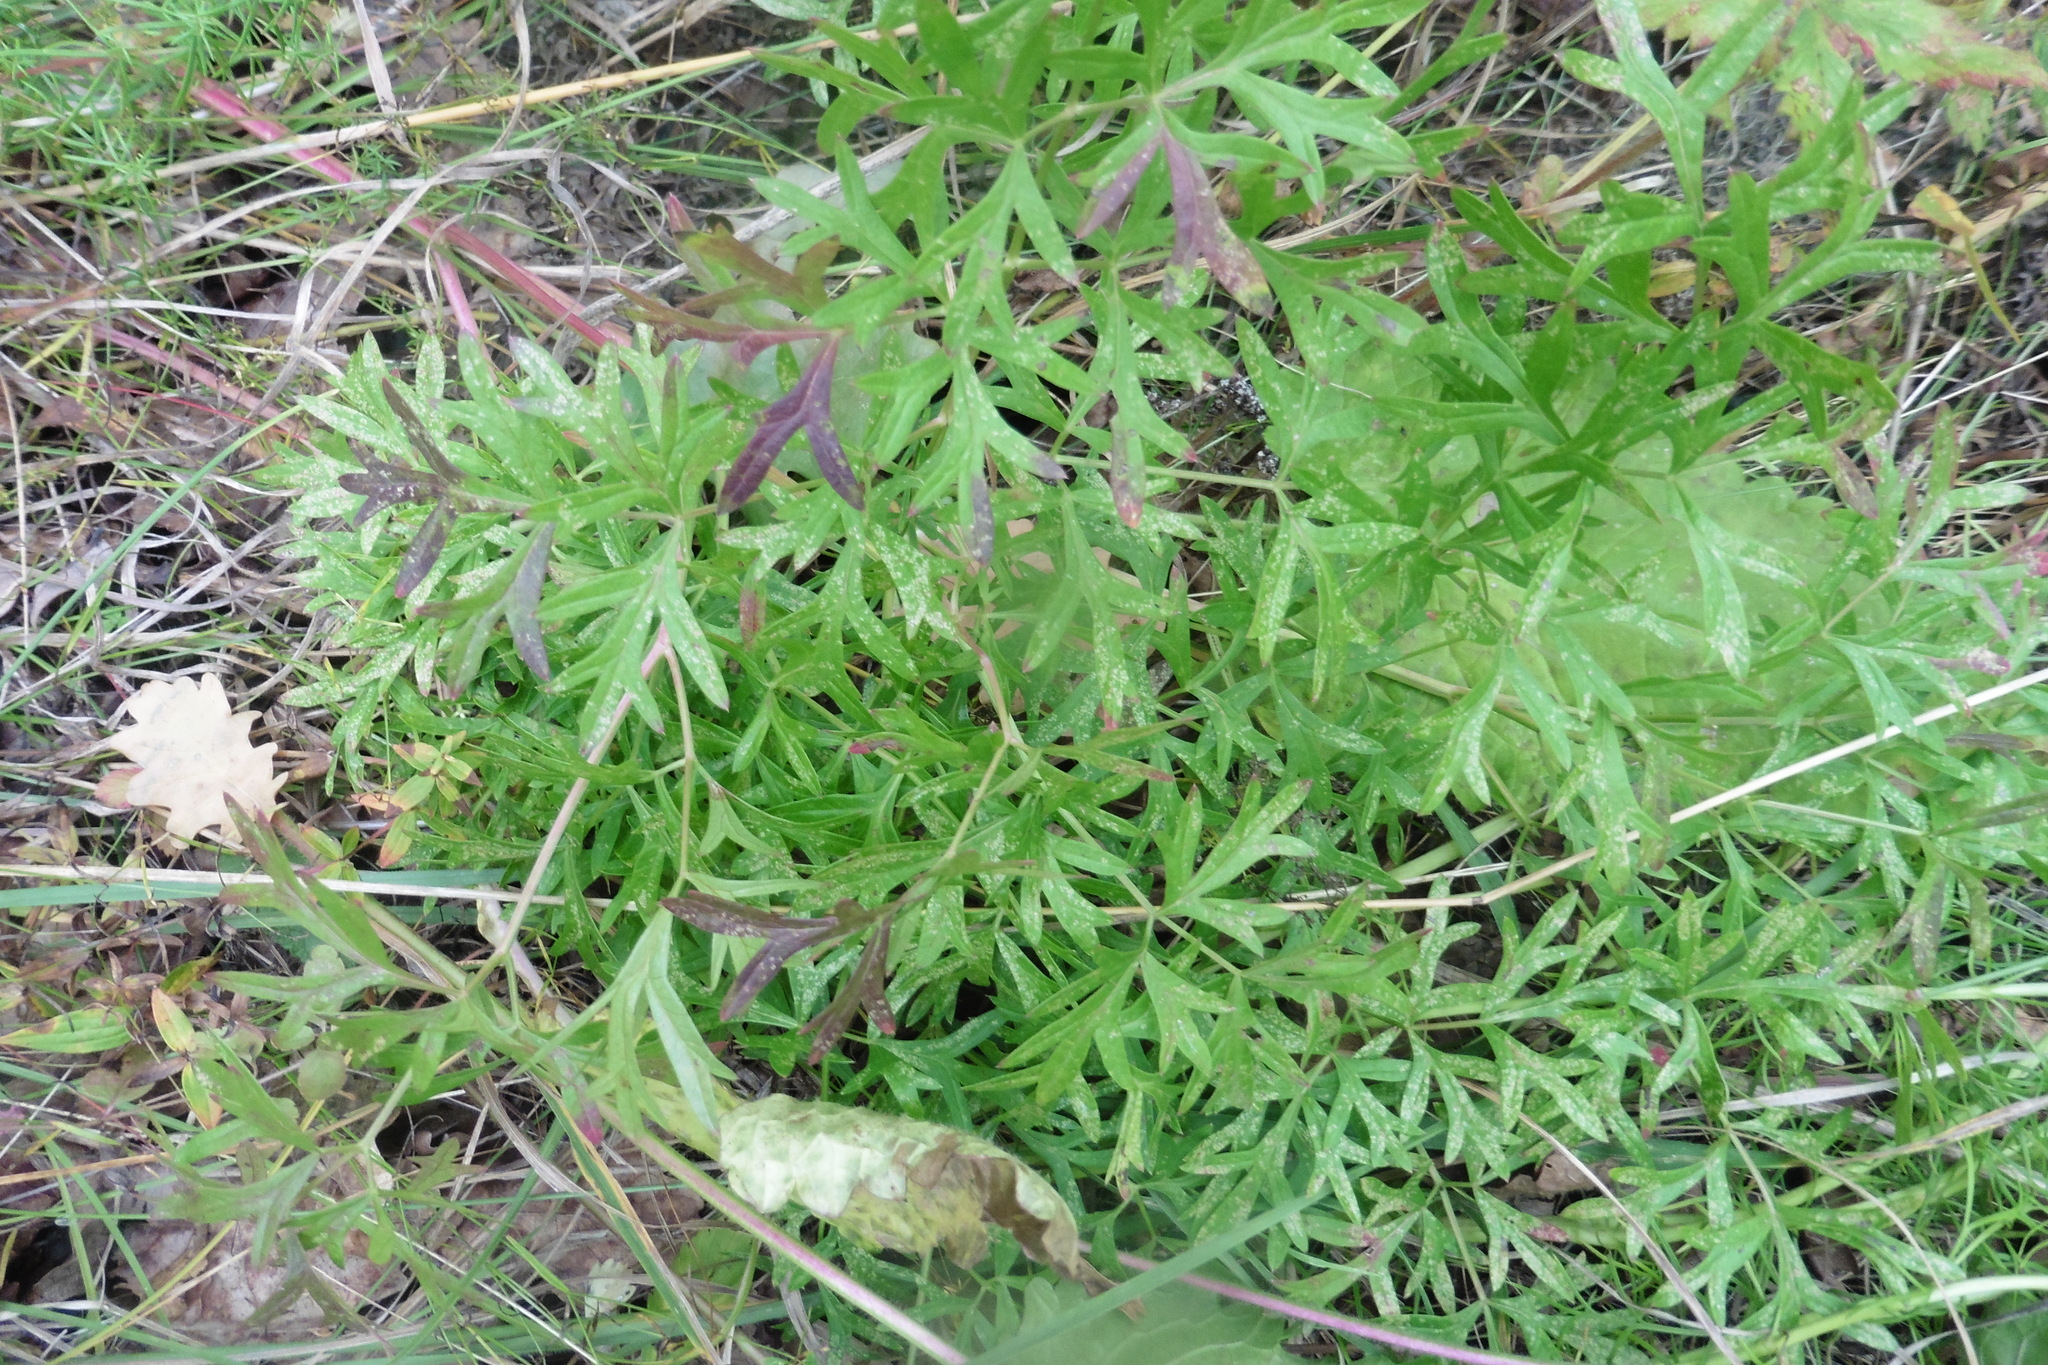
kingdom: Plantae
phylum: Tracheophyta
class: Magnoliopsida
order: Apiales
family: Apiaceae
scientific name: Apiaceae
